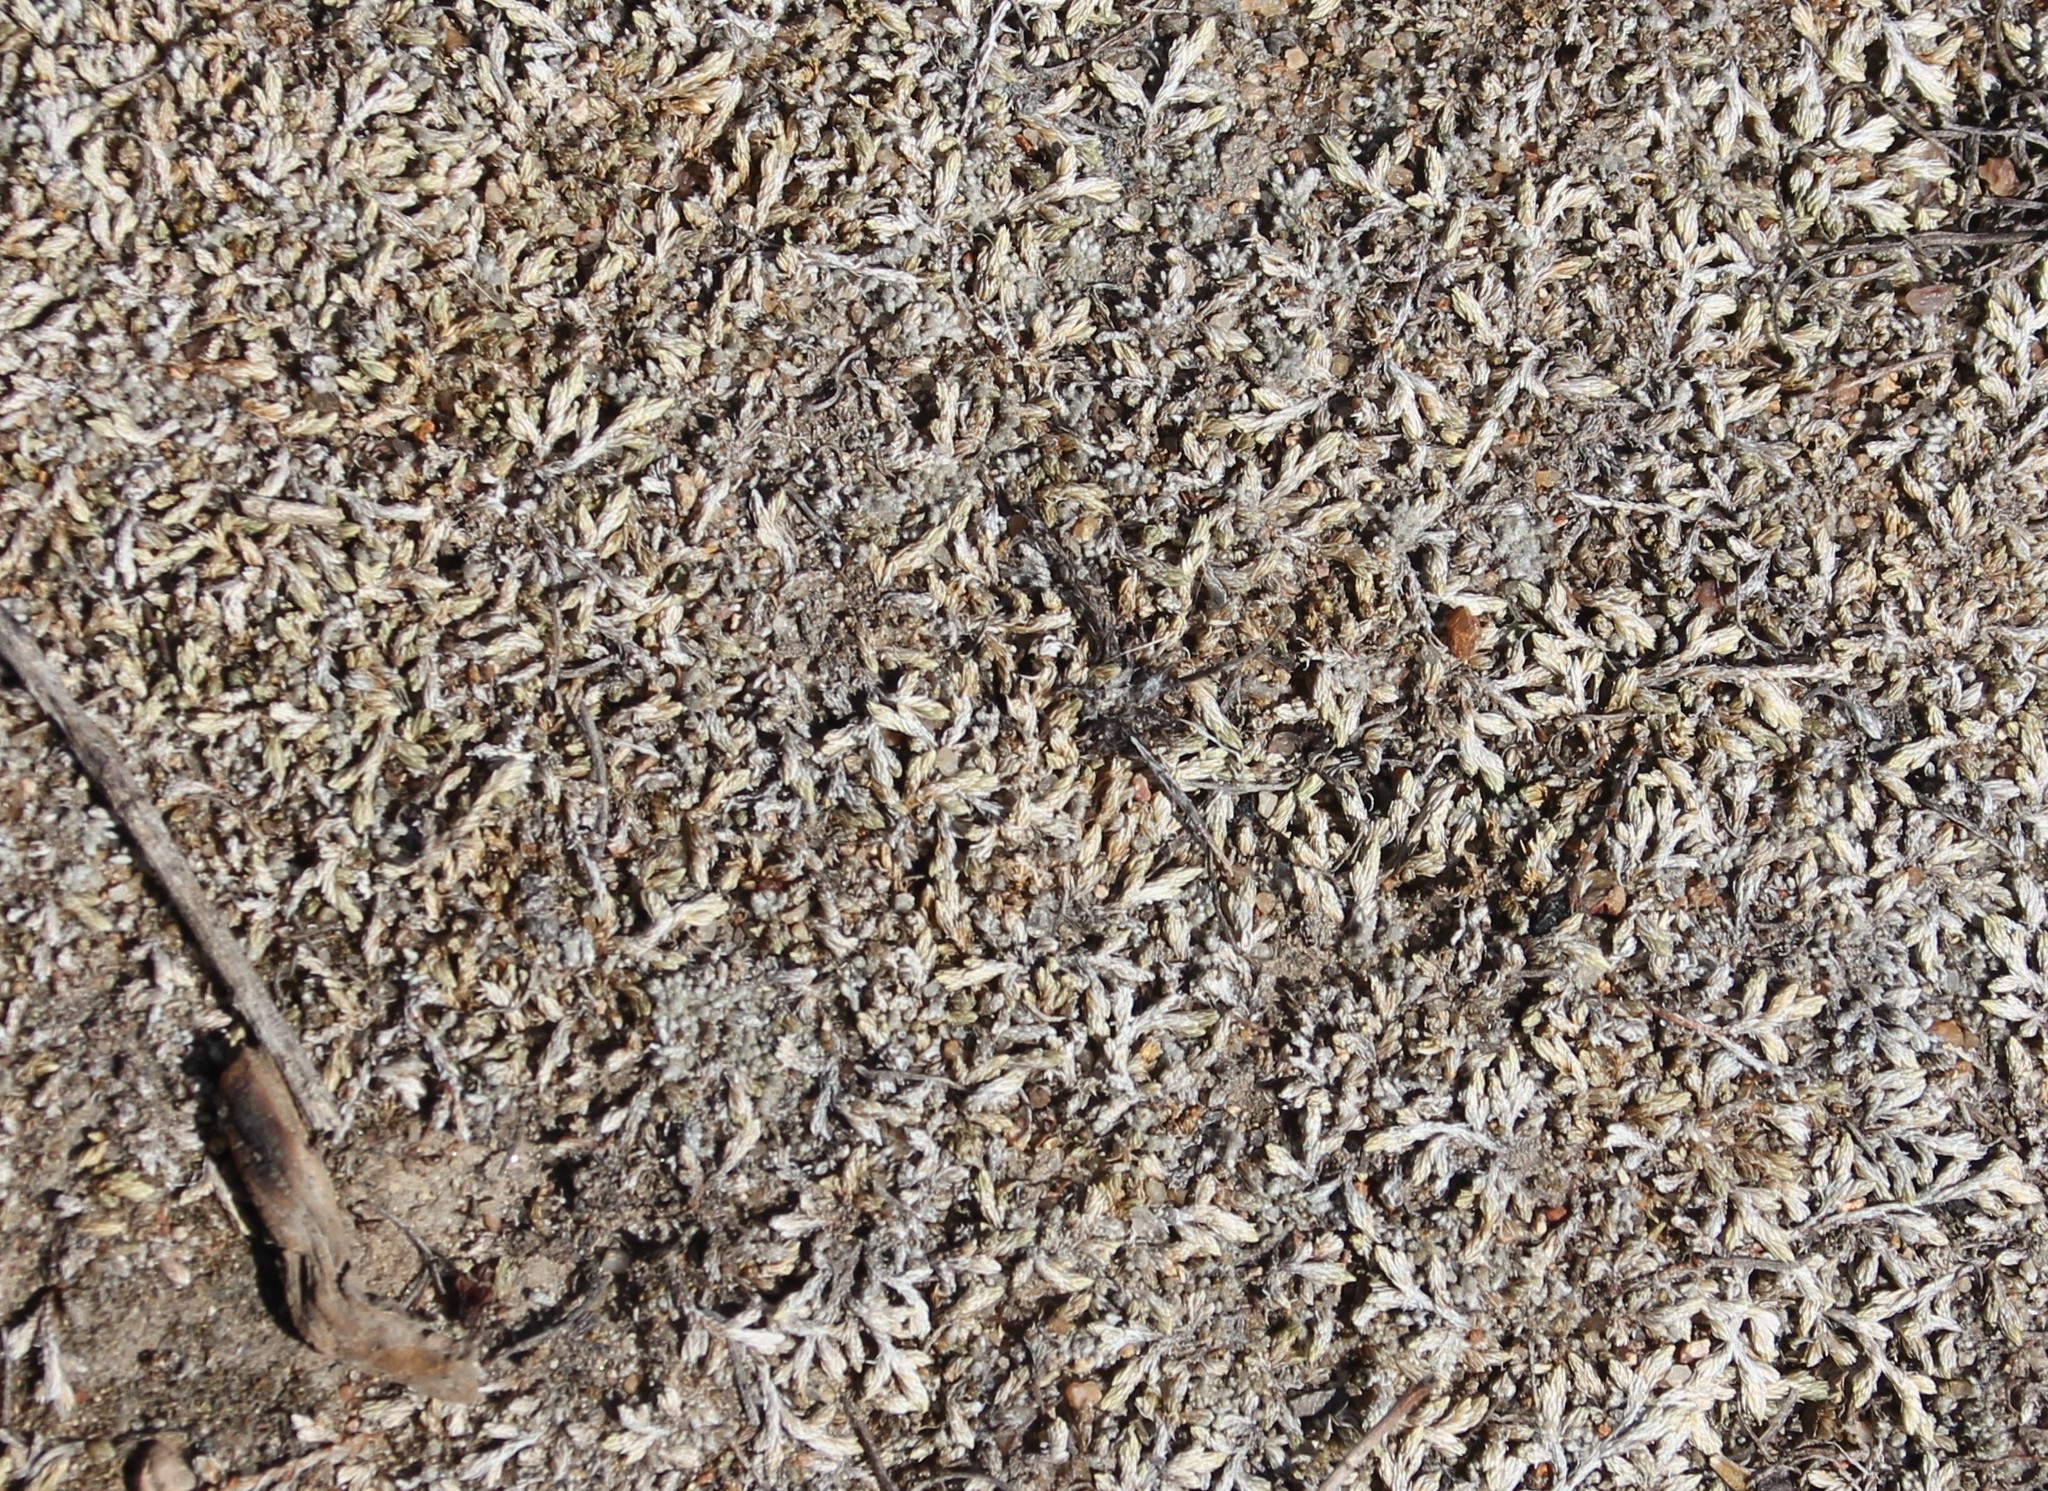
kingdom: Plantae
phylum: Tracheophyta
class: Lycopodiopsida
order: Selaginellales
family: Selaginellaceae
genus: Selaginella
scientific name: Selaginella cinerascens
